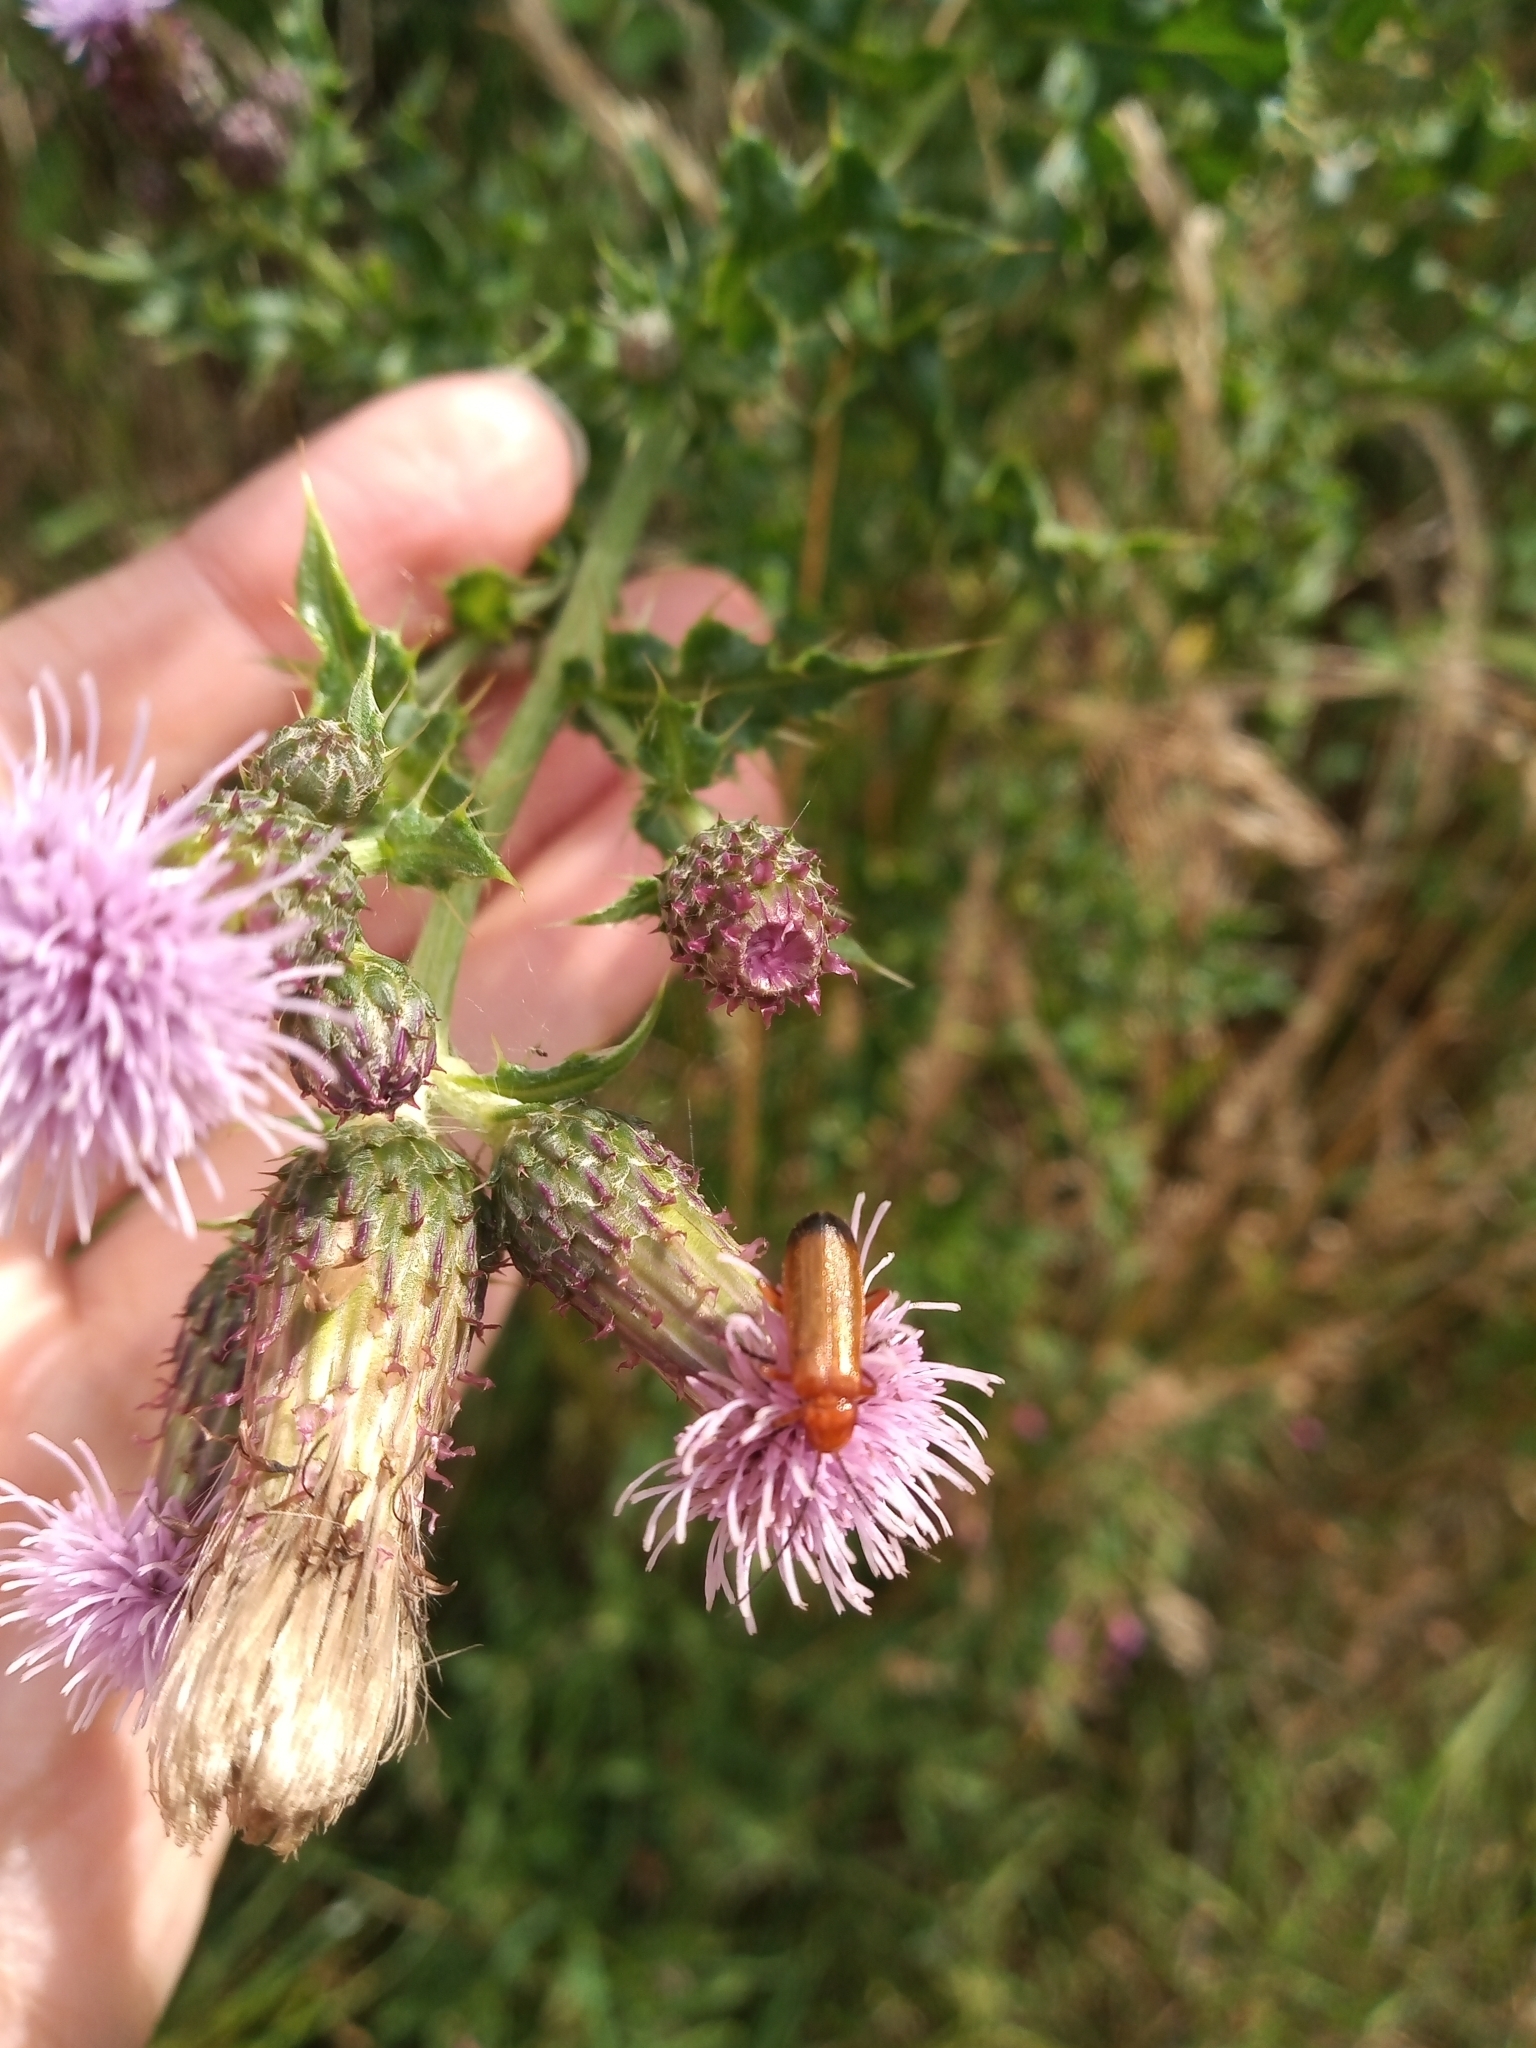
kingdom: Animalia
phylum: Arthropoda
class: Insecta
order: Coleoptera
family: Cantharidae
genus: Rhagonycha
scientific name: Rhagonycha fulva
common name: Common red soldier beetle
